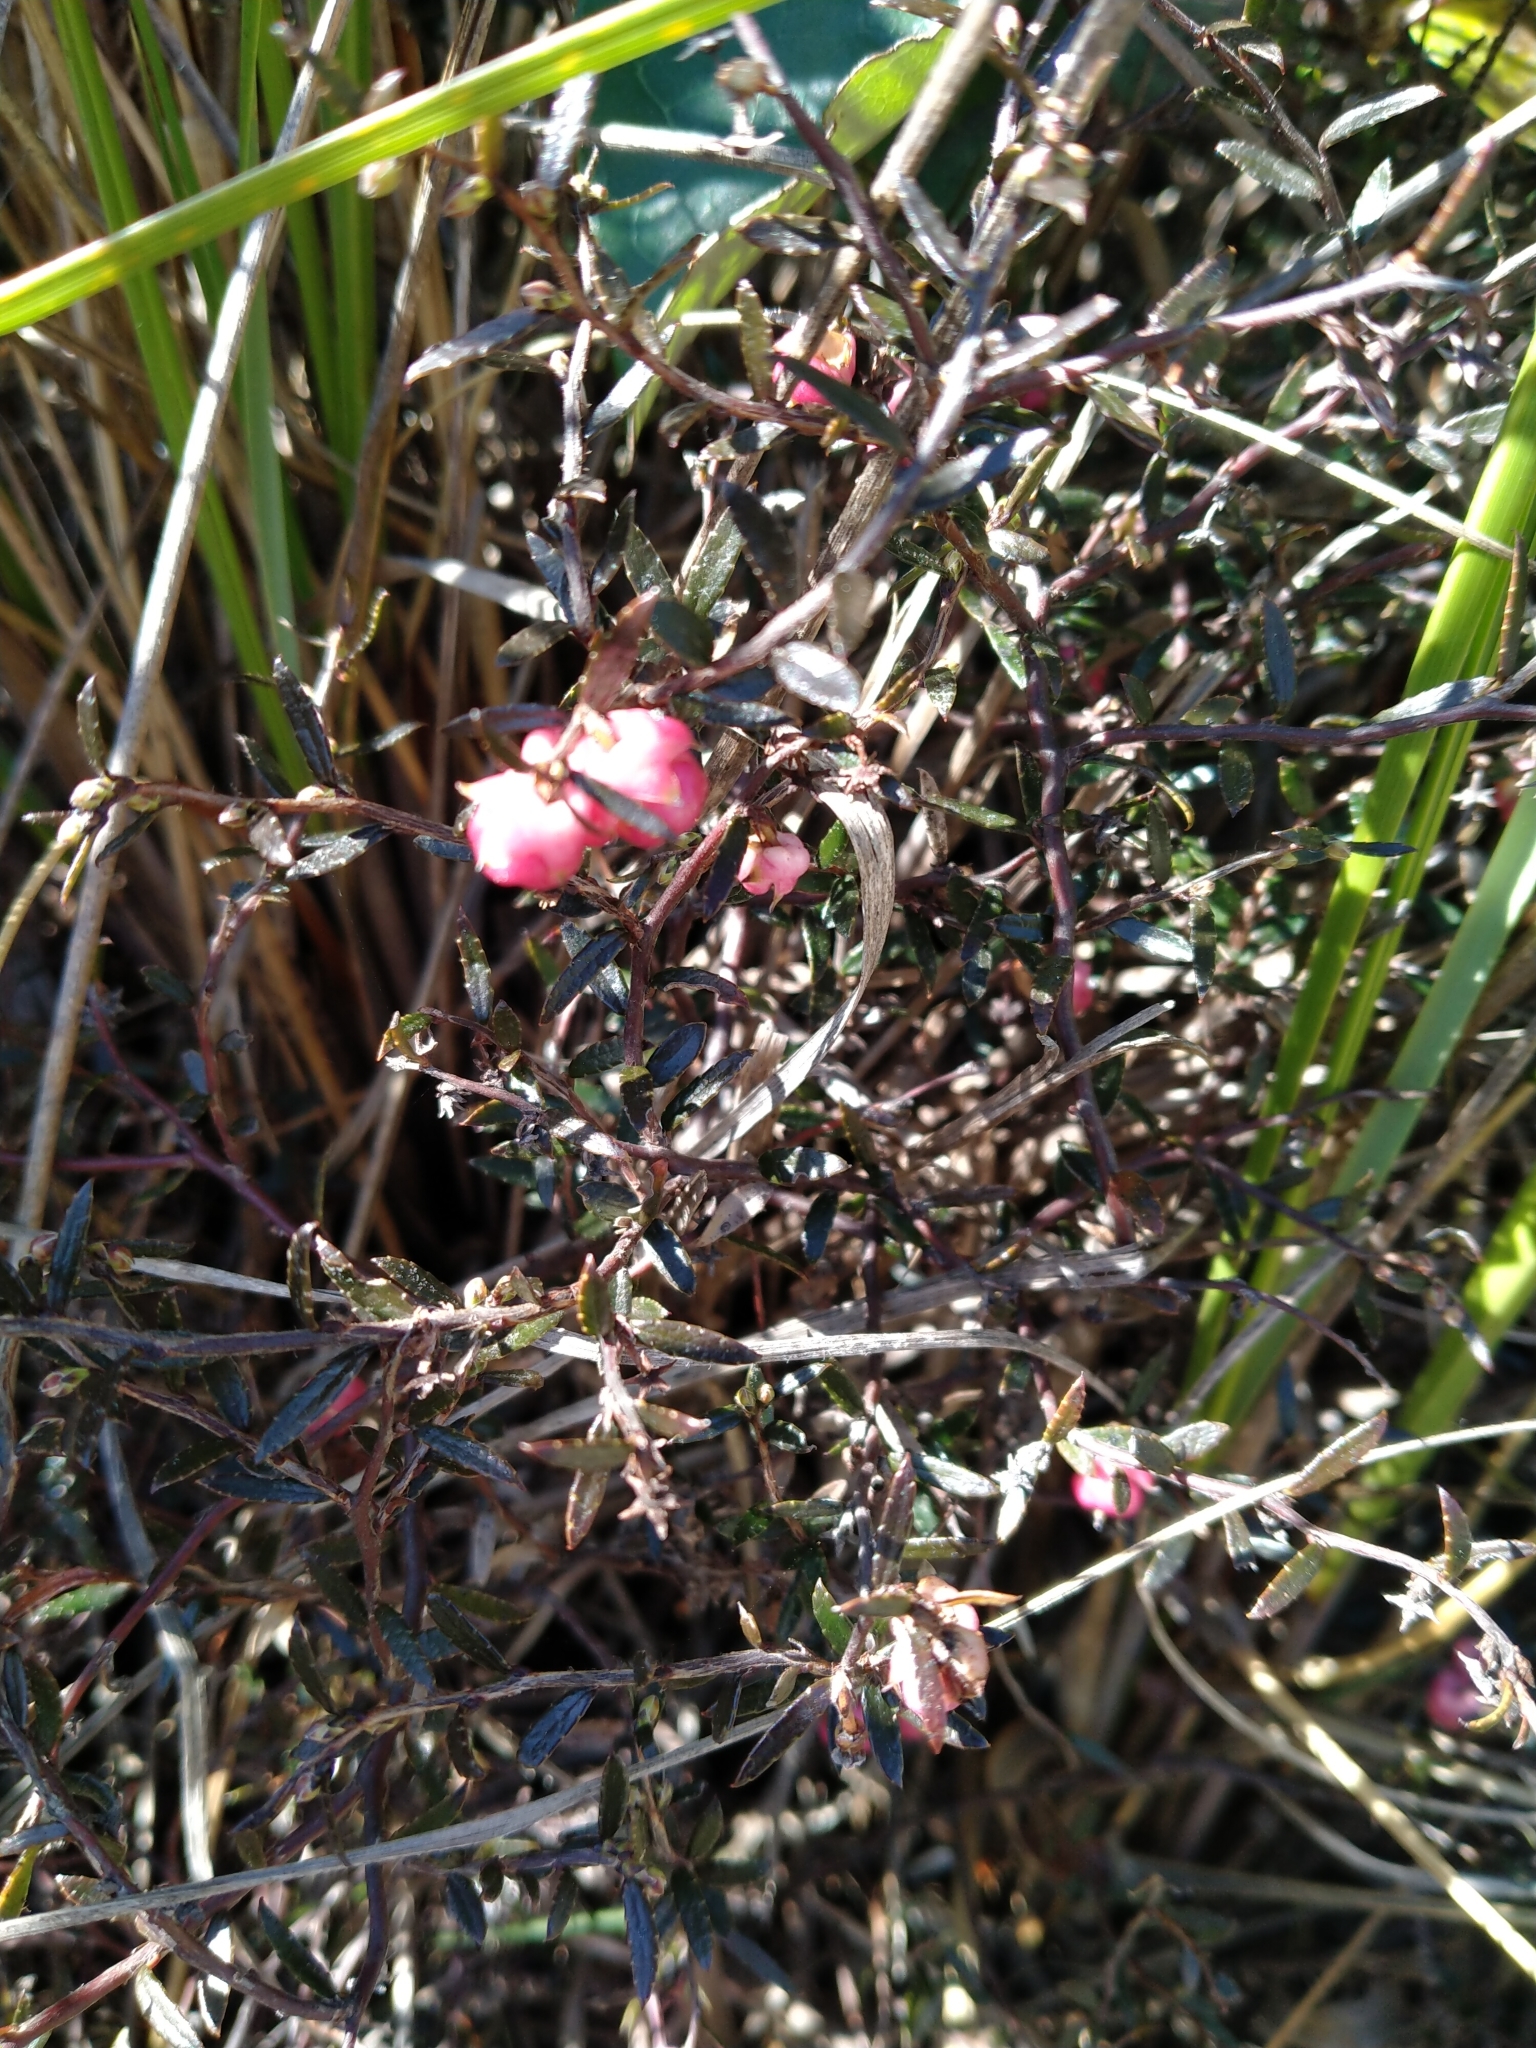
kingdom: Plantae
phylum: Tracheophyta
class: Magnoliopsida
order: Ericales
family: Ericaceae
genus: Gaultheria
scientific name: Gaultheria macrostigma
